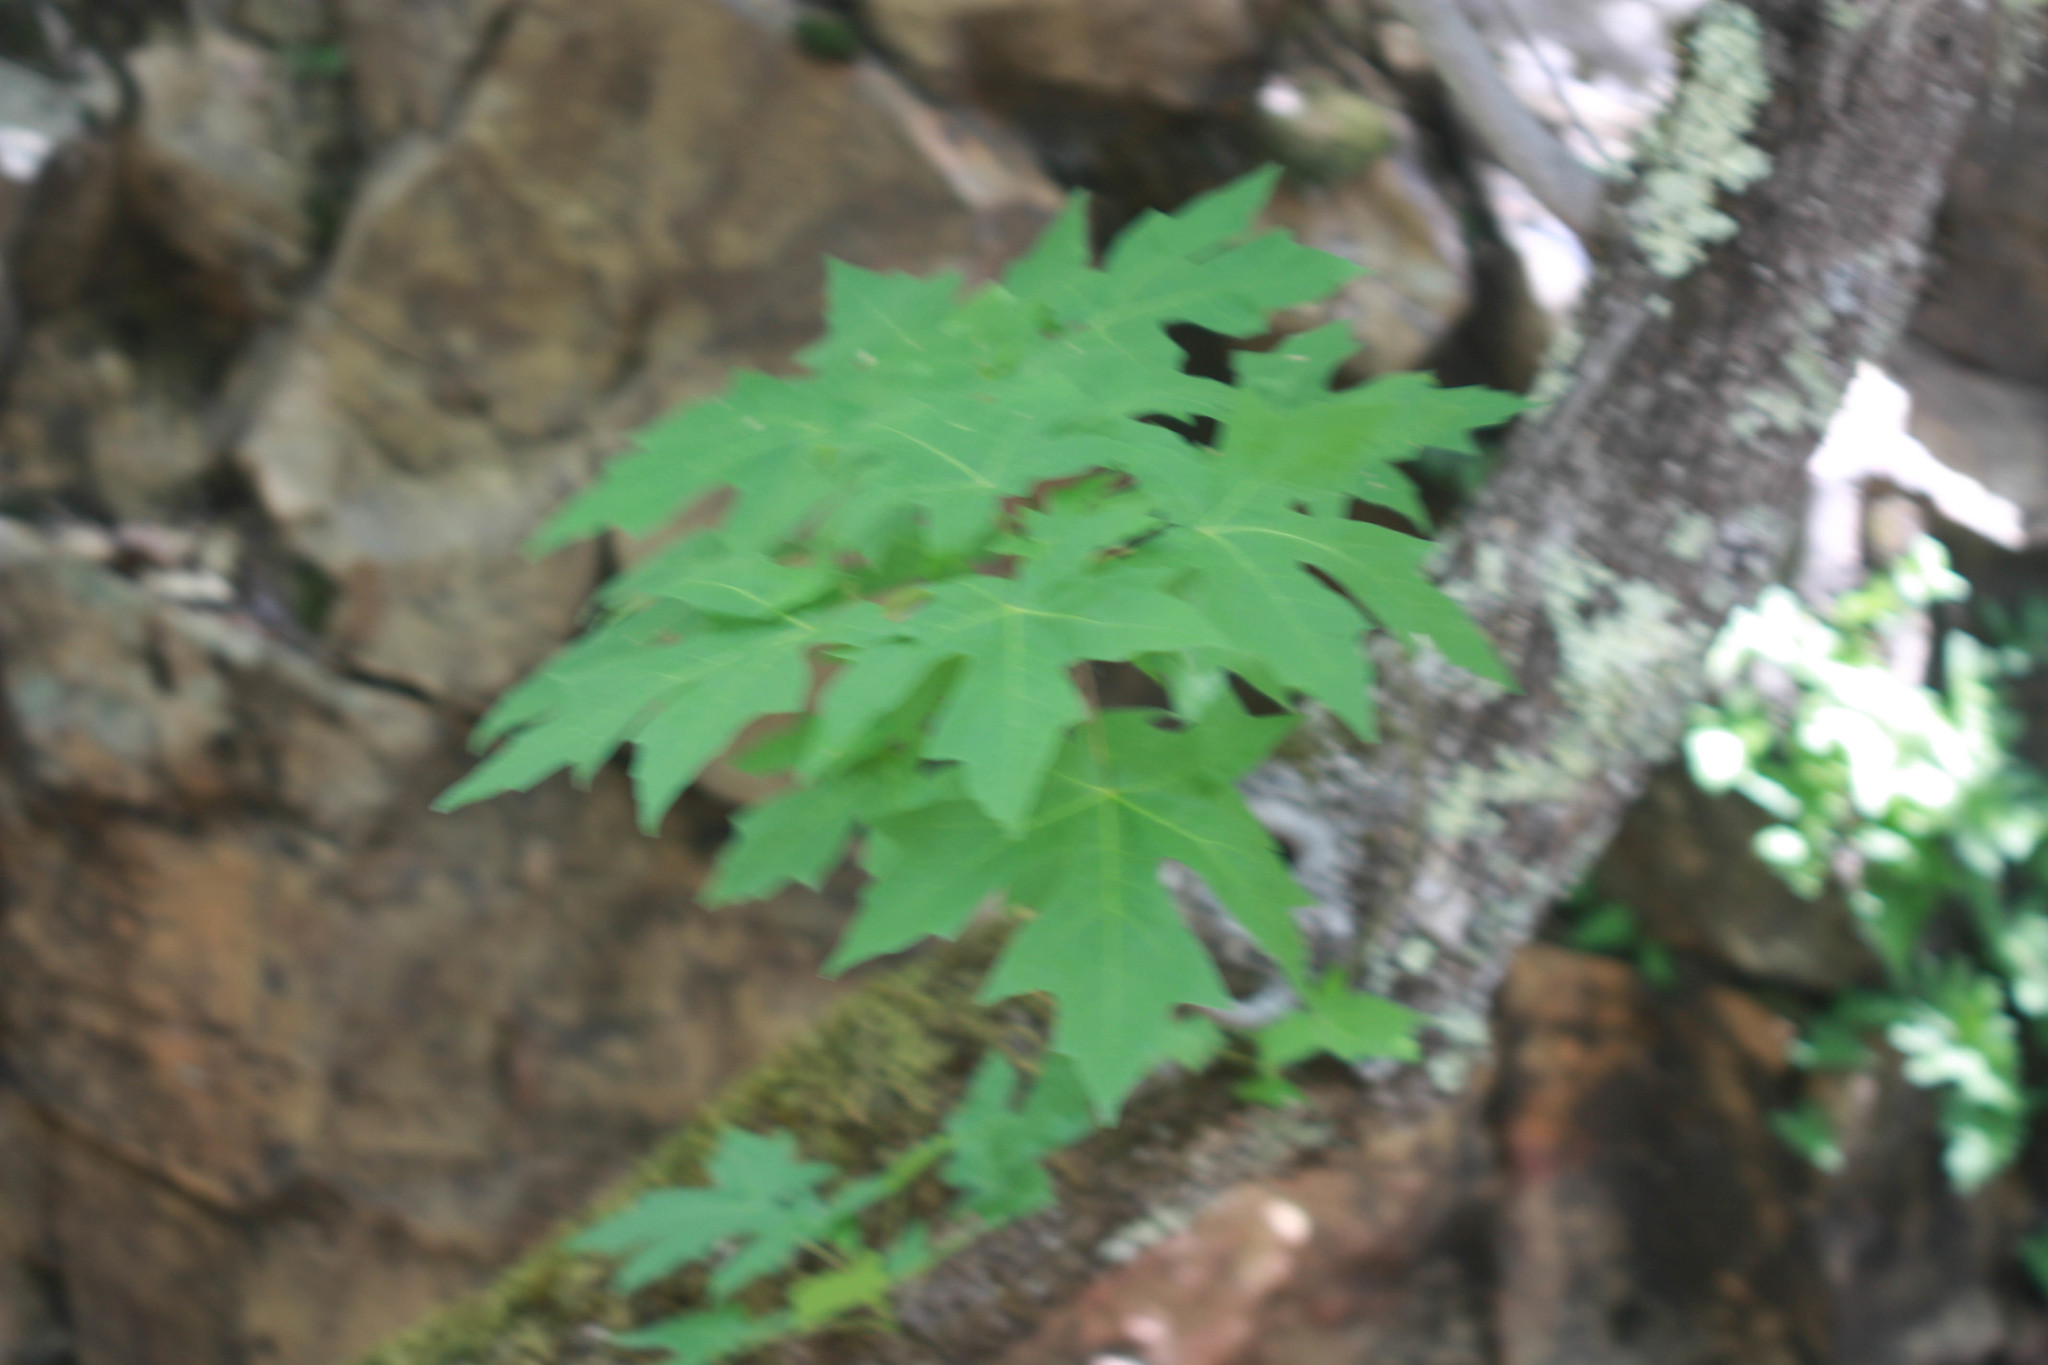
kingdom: Plantae
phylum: Tracheophyta
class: Magnoliopsida
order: Sapindales
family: Sapindaceae
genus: Acer
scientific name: Acer macrophyllum
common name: Oregon maple
